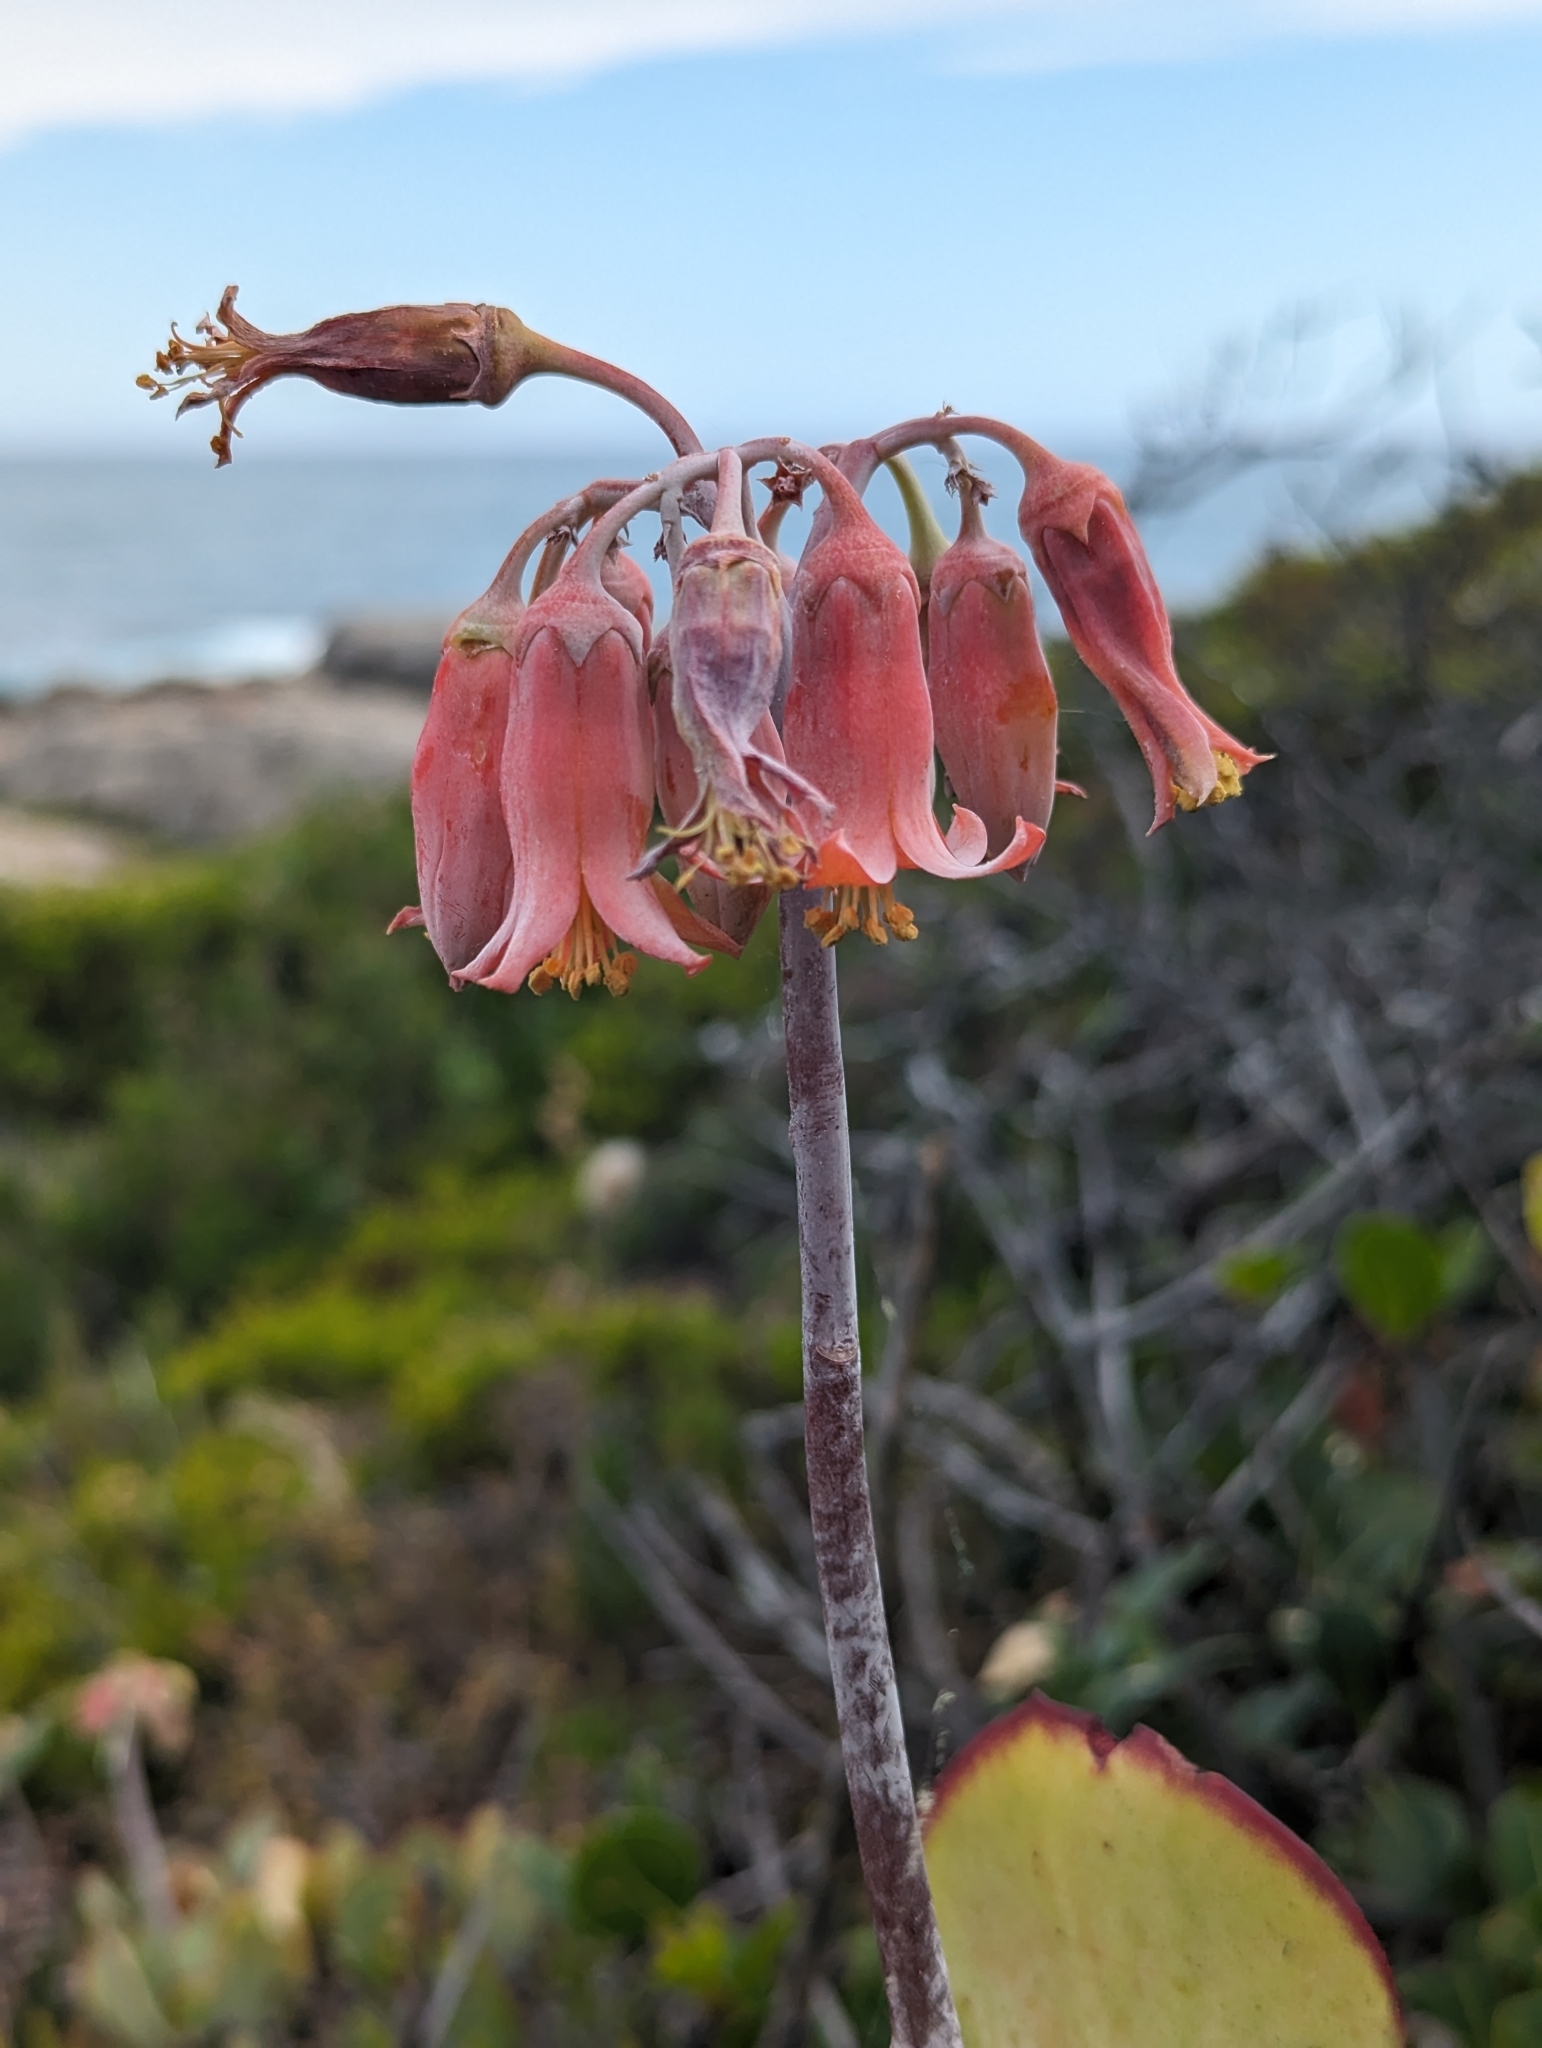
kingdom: Plantae
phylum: Tracheophyta
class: Magnoliopsida
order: Saxifragales
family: Crassulaceae
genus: Cotyledon
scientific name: Cotyledon orbiculata
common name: Pig's ear
